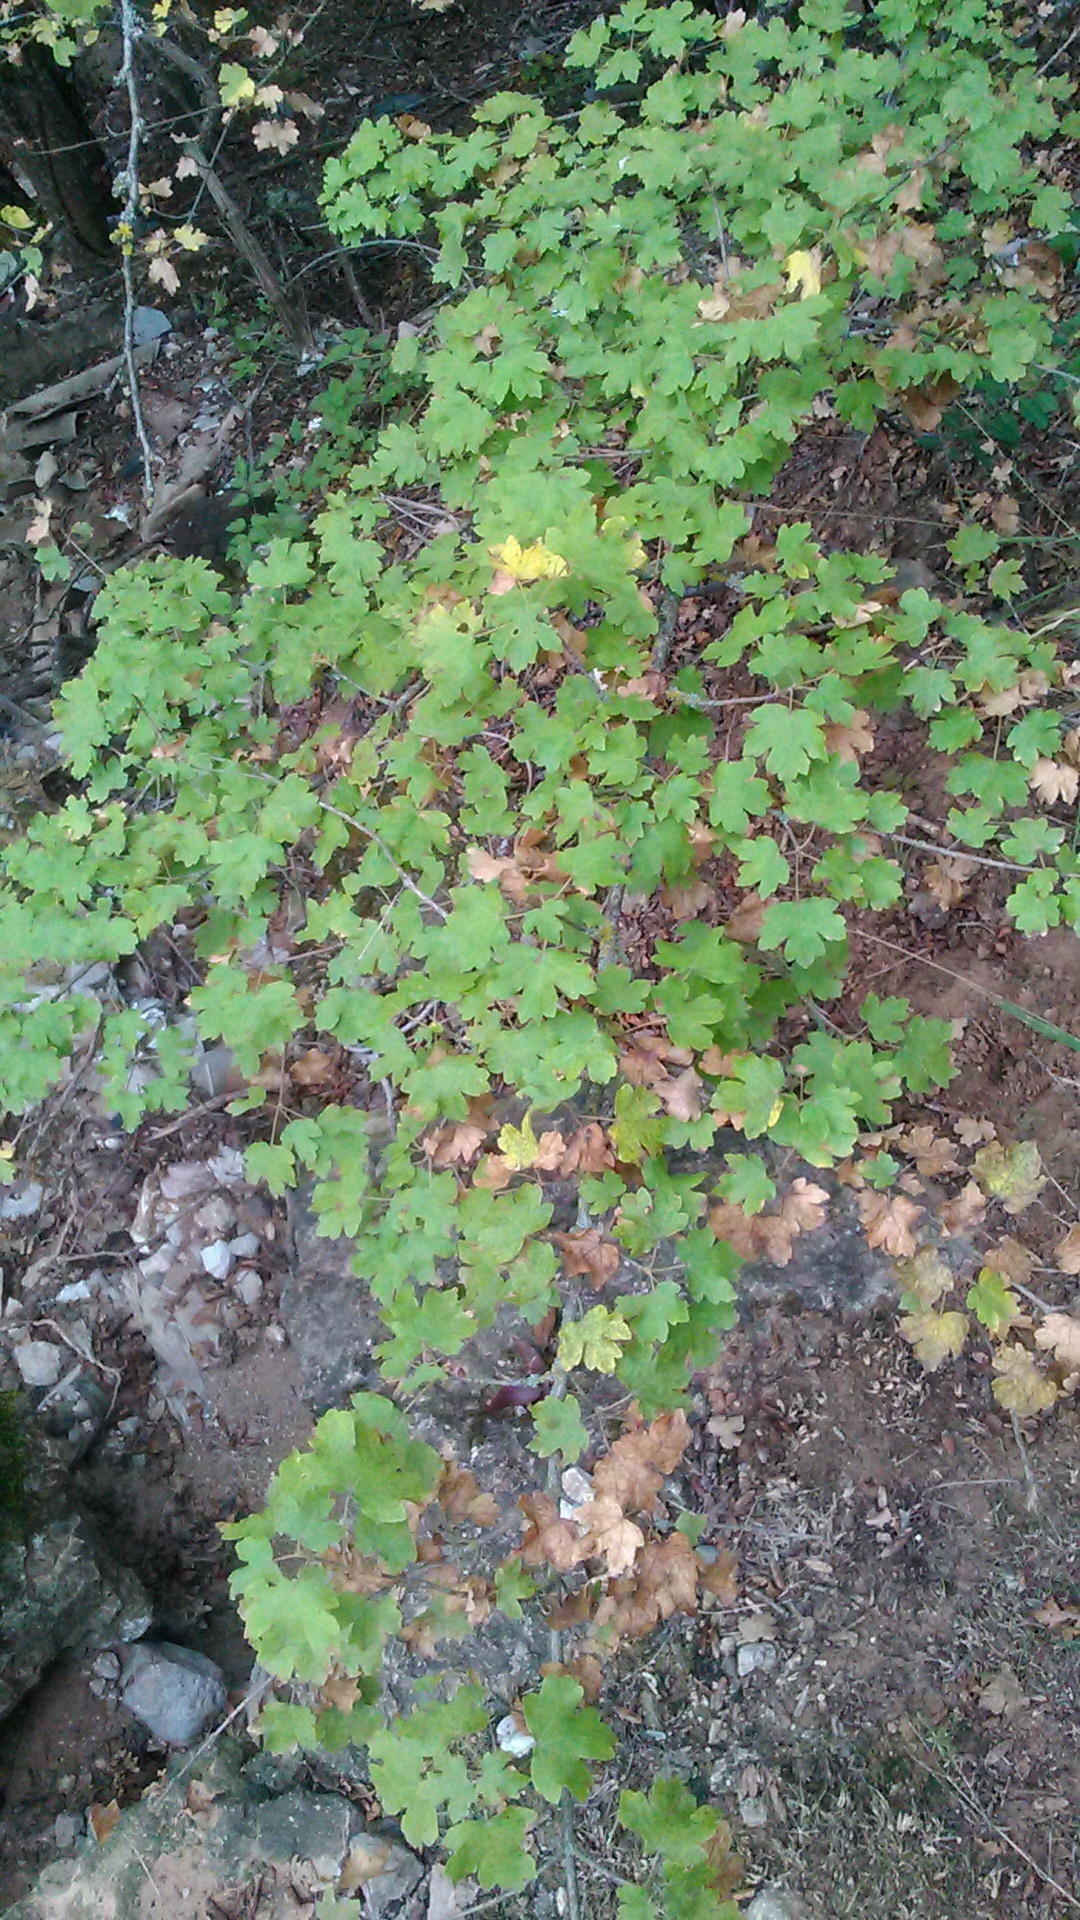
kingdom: Plantae
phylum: Tracheophyta
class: Magnoliopsida
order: Sapindales
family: Sapindaceae
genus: Acer
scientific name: Acer campestre
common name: Field maple
